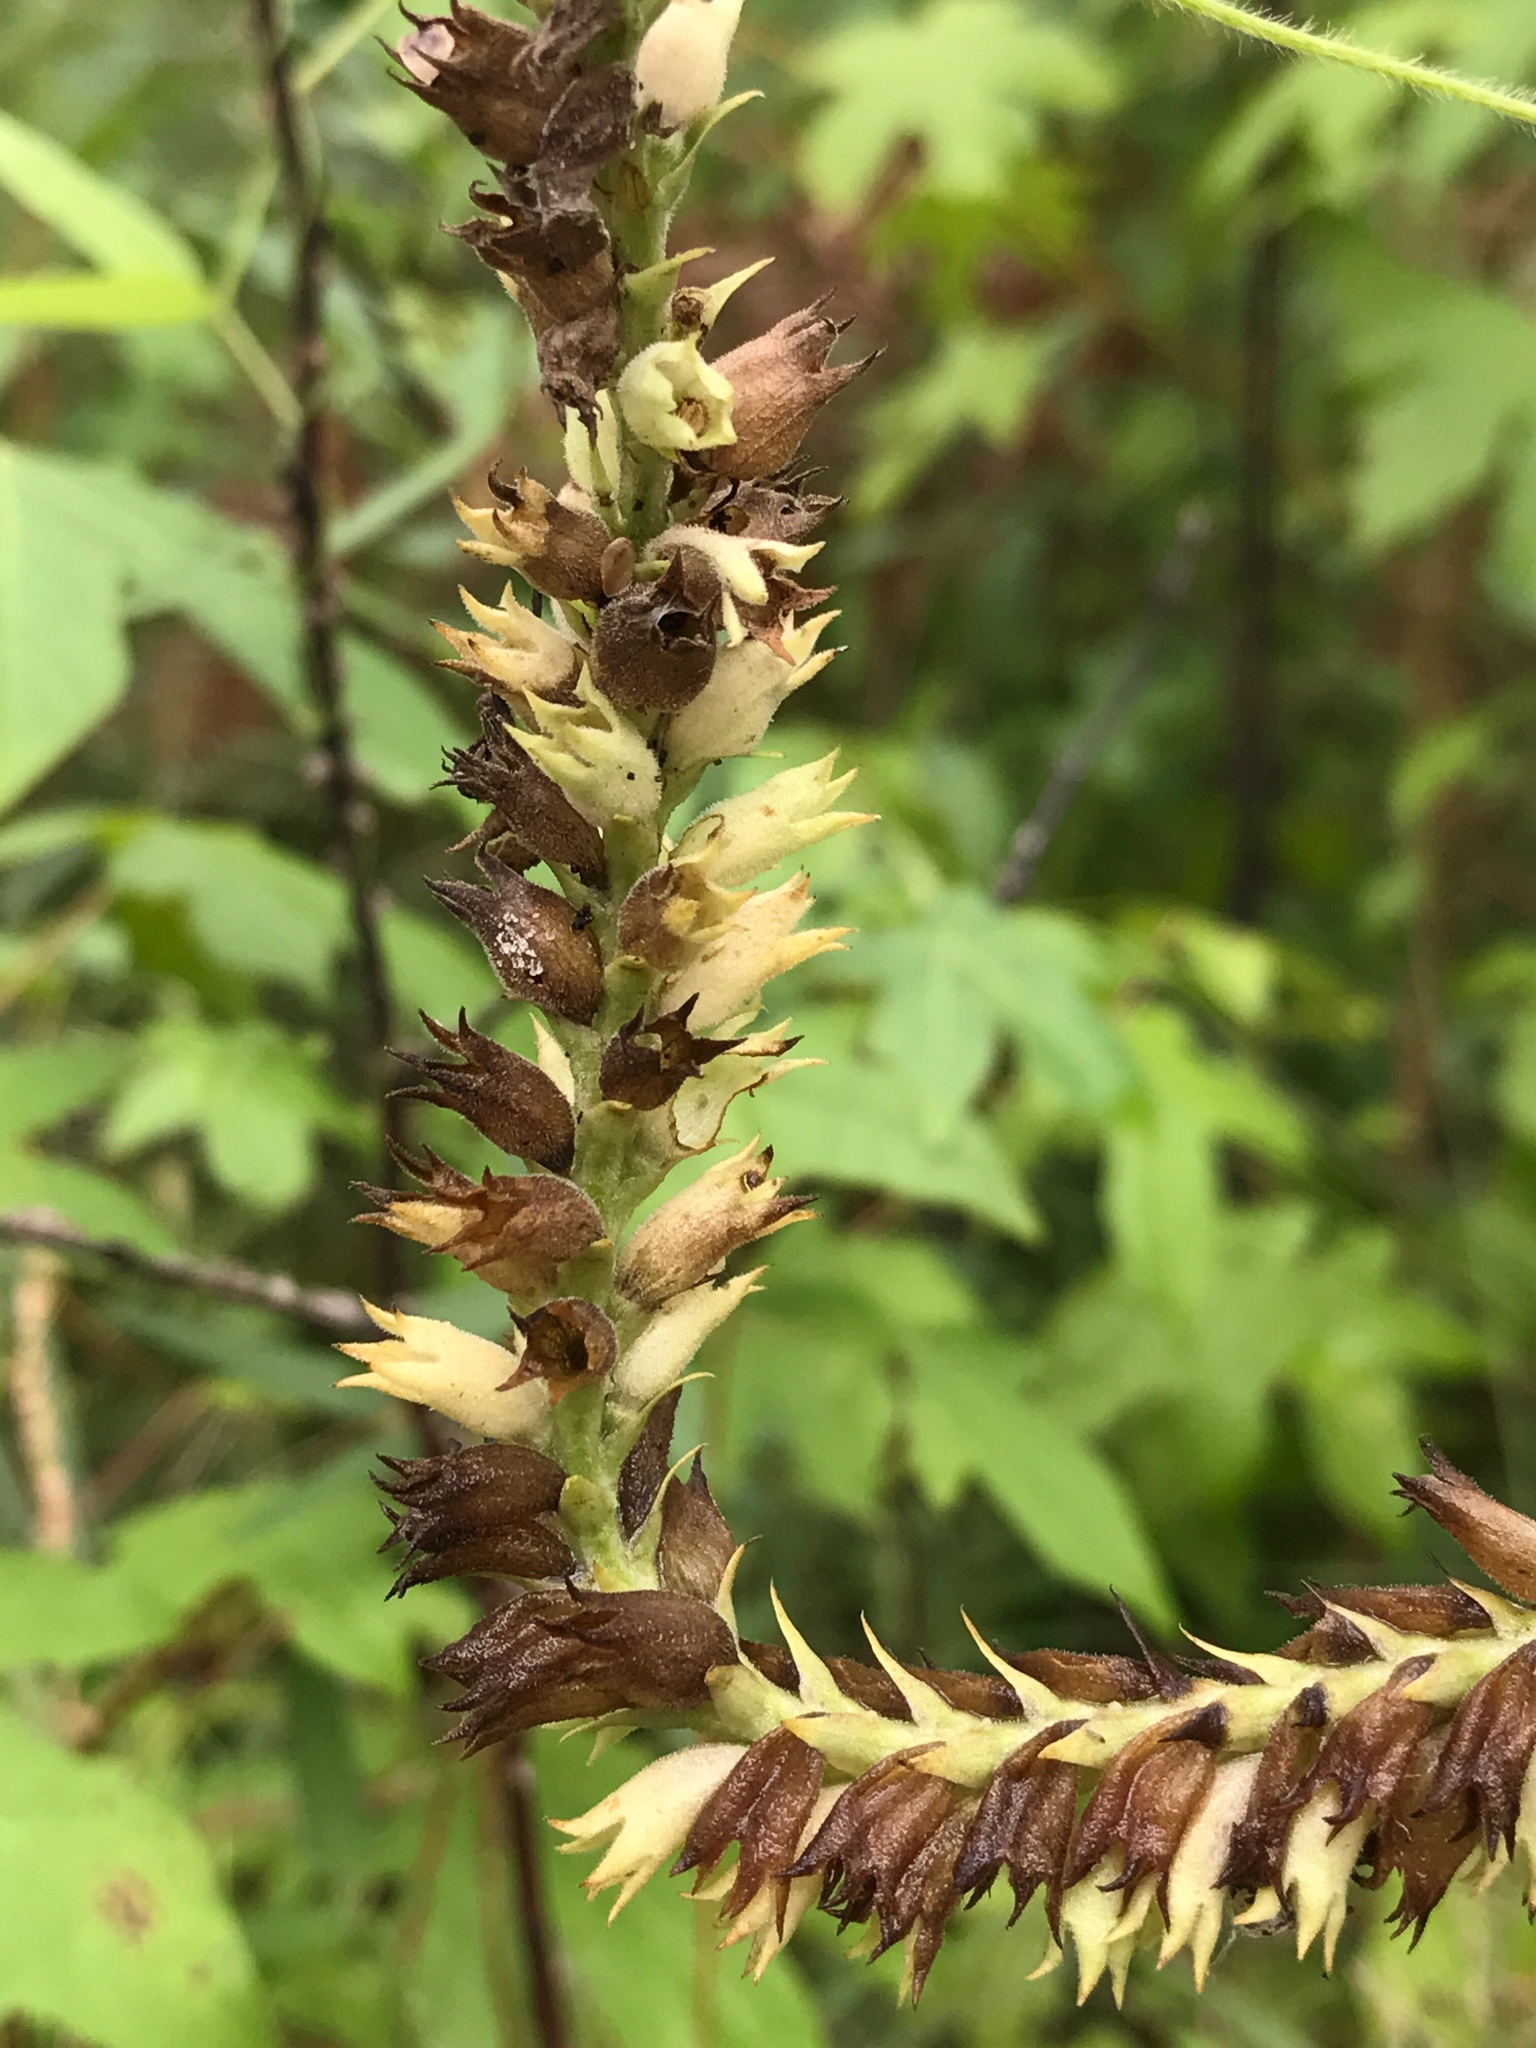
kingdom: Plantae
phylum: Tracheophyta
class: Magnoliopsida
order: Lamiales
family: Lamiaceae
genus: Physostegia
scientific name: Physostegia digitalis
